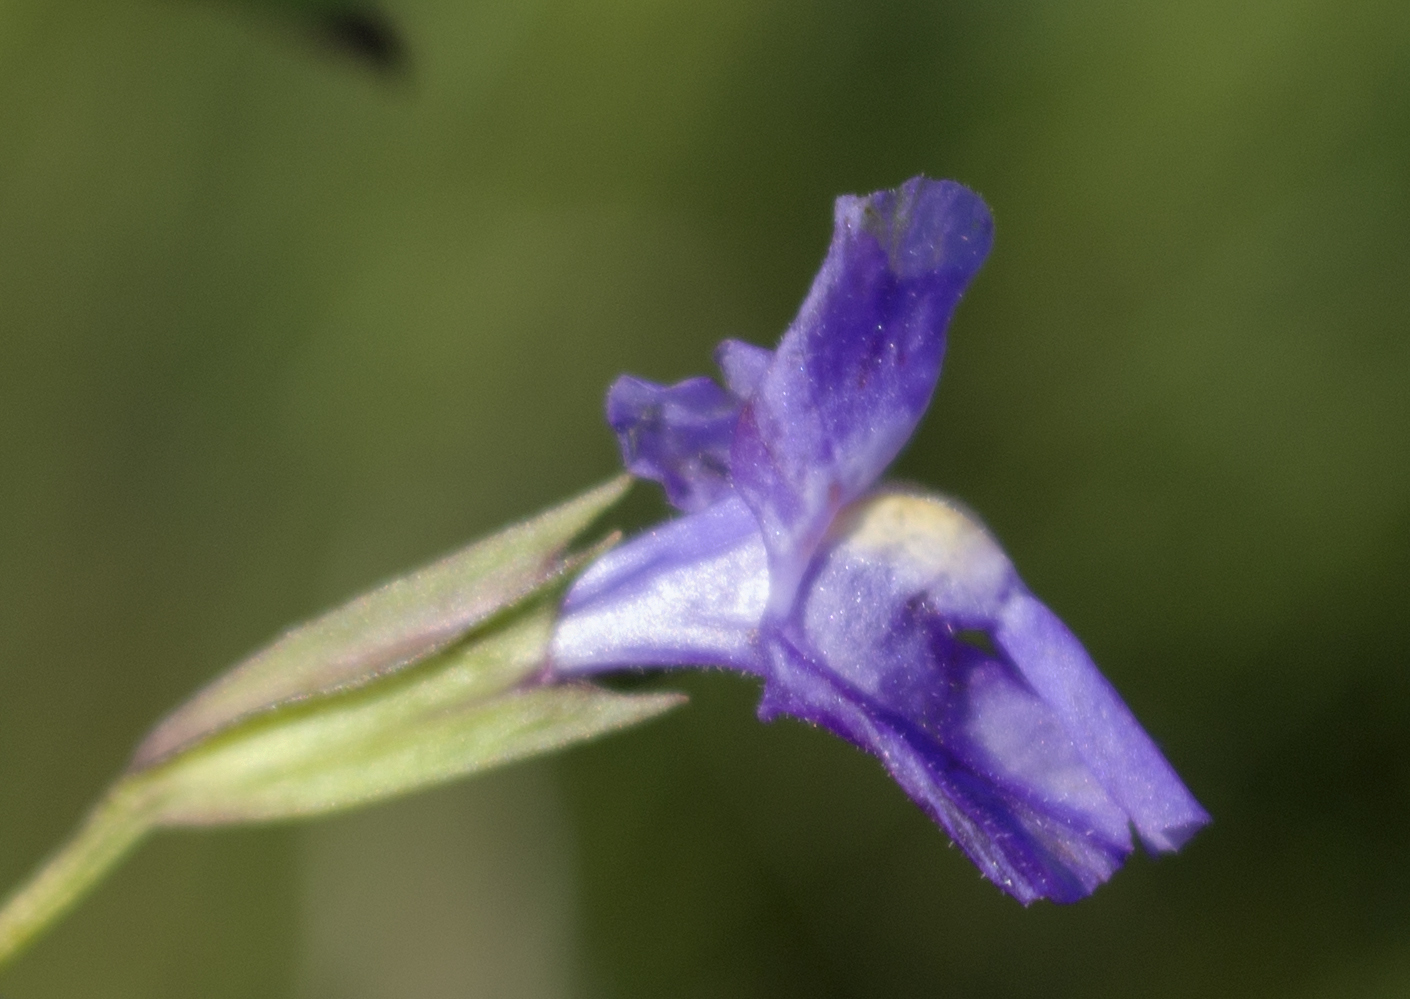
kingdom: Plantae
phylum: Tracheophyta
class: Magnoliopsida
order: Lamiales
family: Phrymaceae
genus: Mimulus
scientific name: Mimulus ringens
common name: Allegheny monkeyflower
